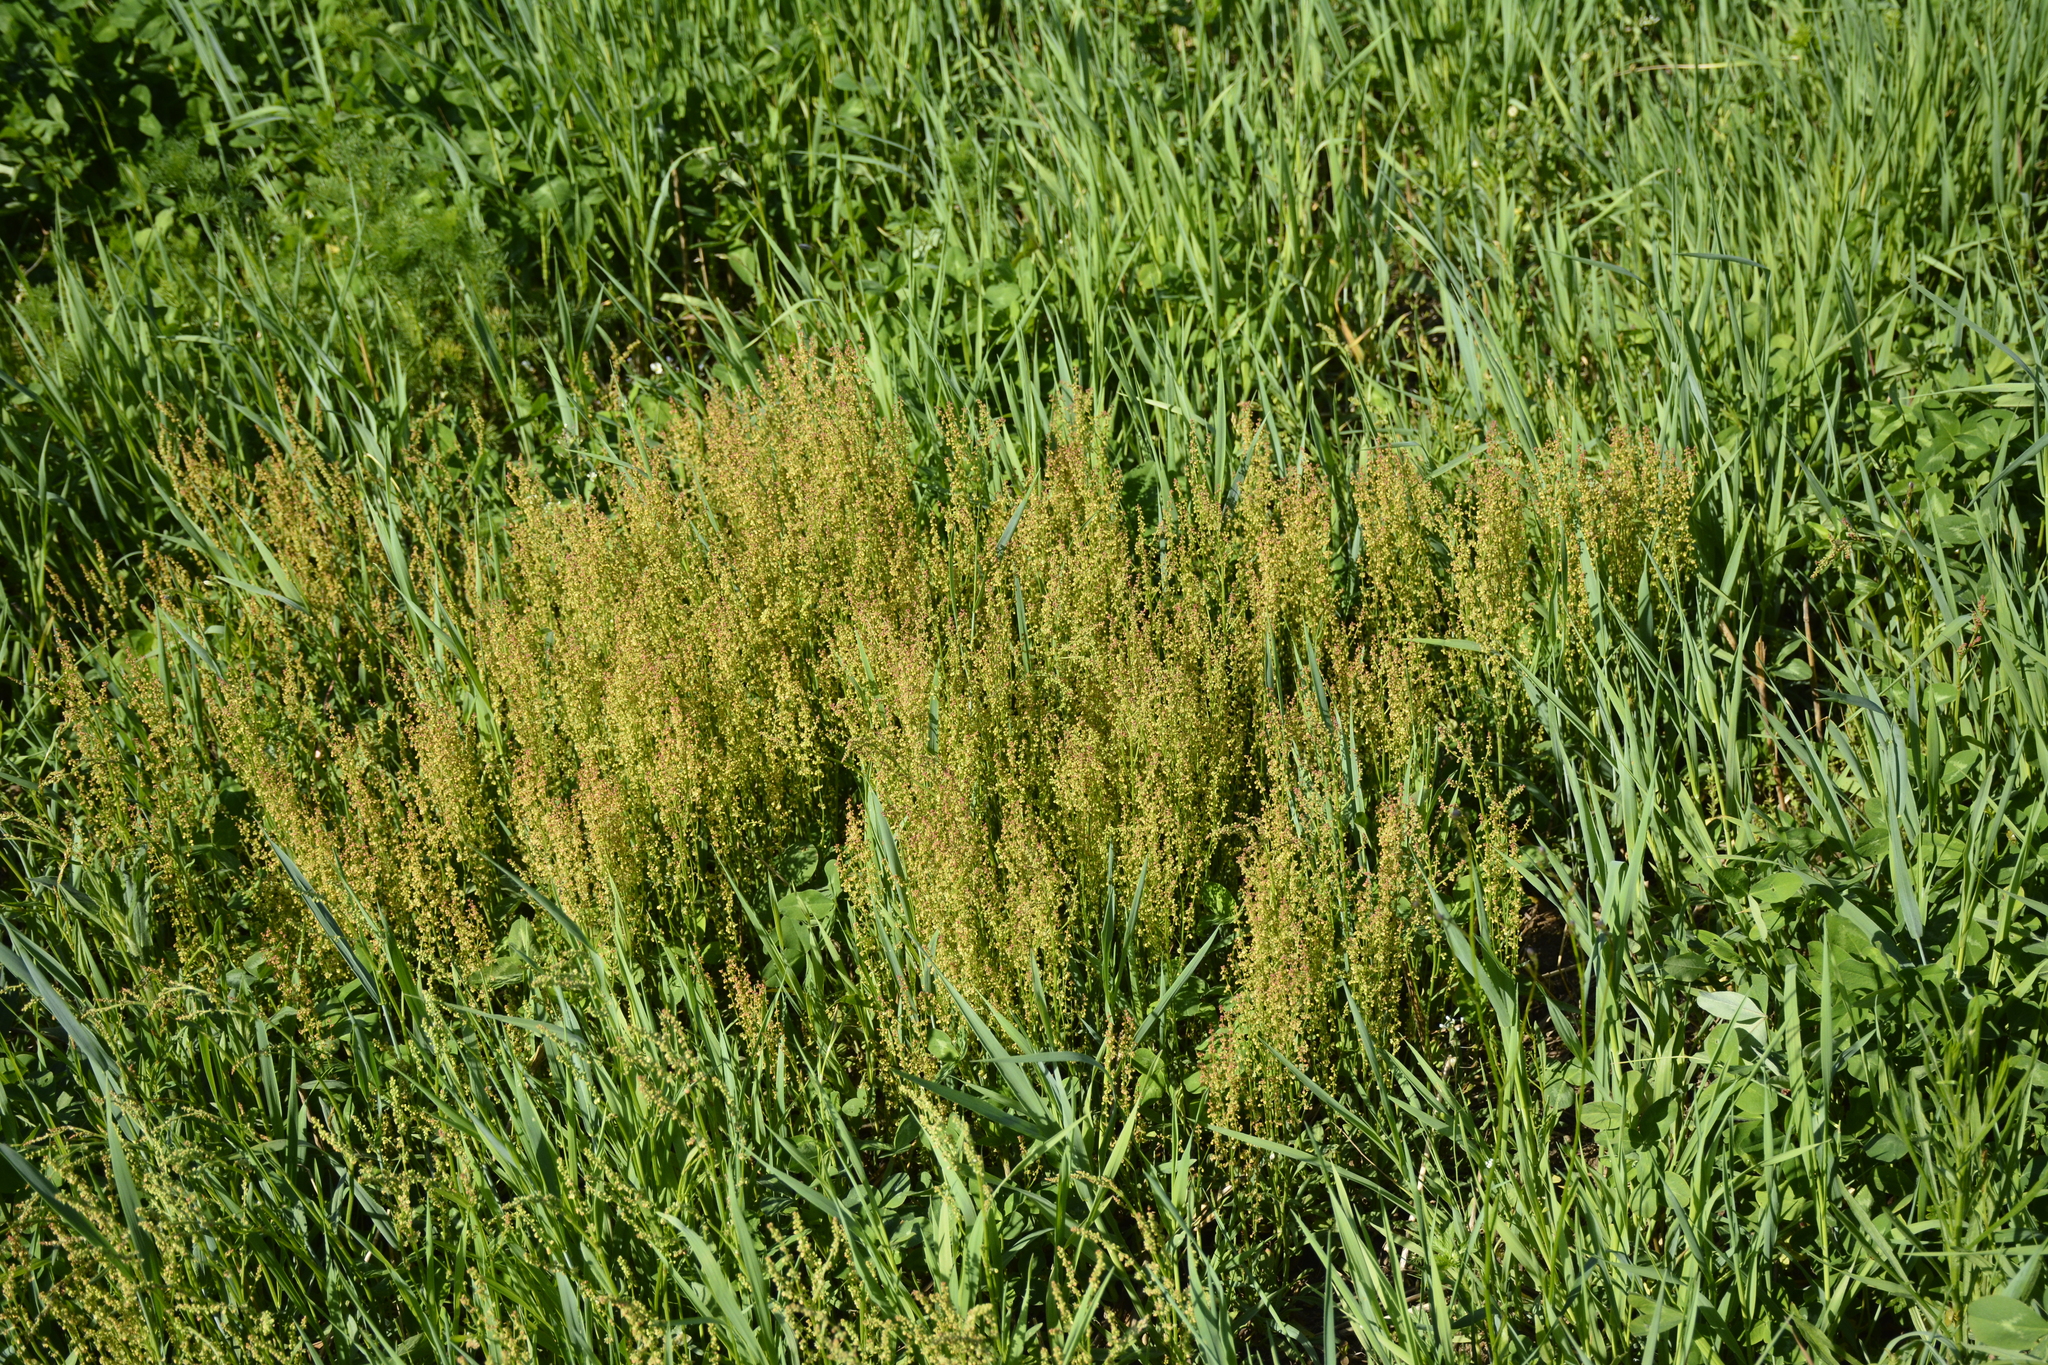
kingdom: Plantae
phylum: Tracheophyta
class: Magnoliopsida
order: Caryophyllales
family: Polygonaceae
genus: Rumex
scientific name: Rumex acetosella
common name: Common sheep sorrel
